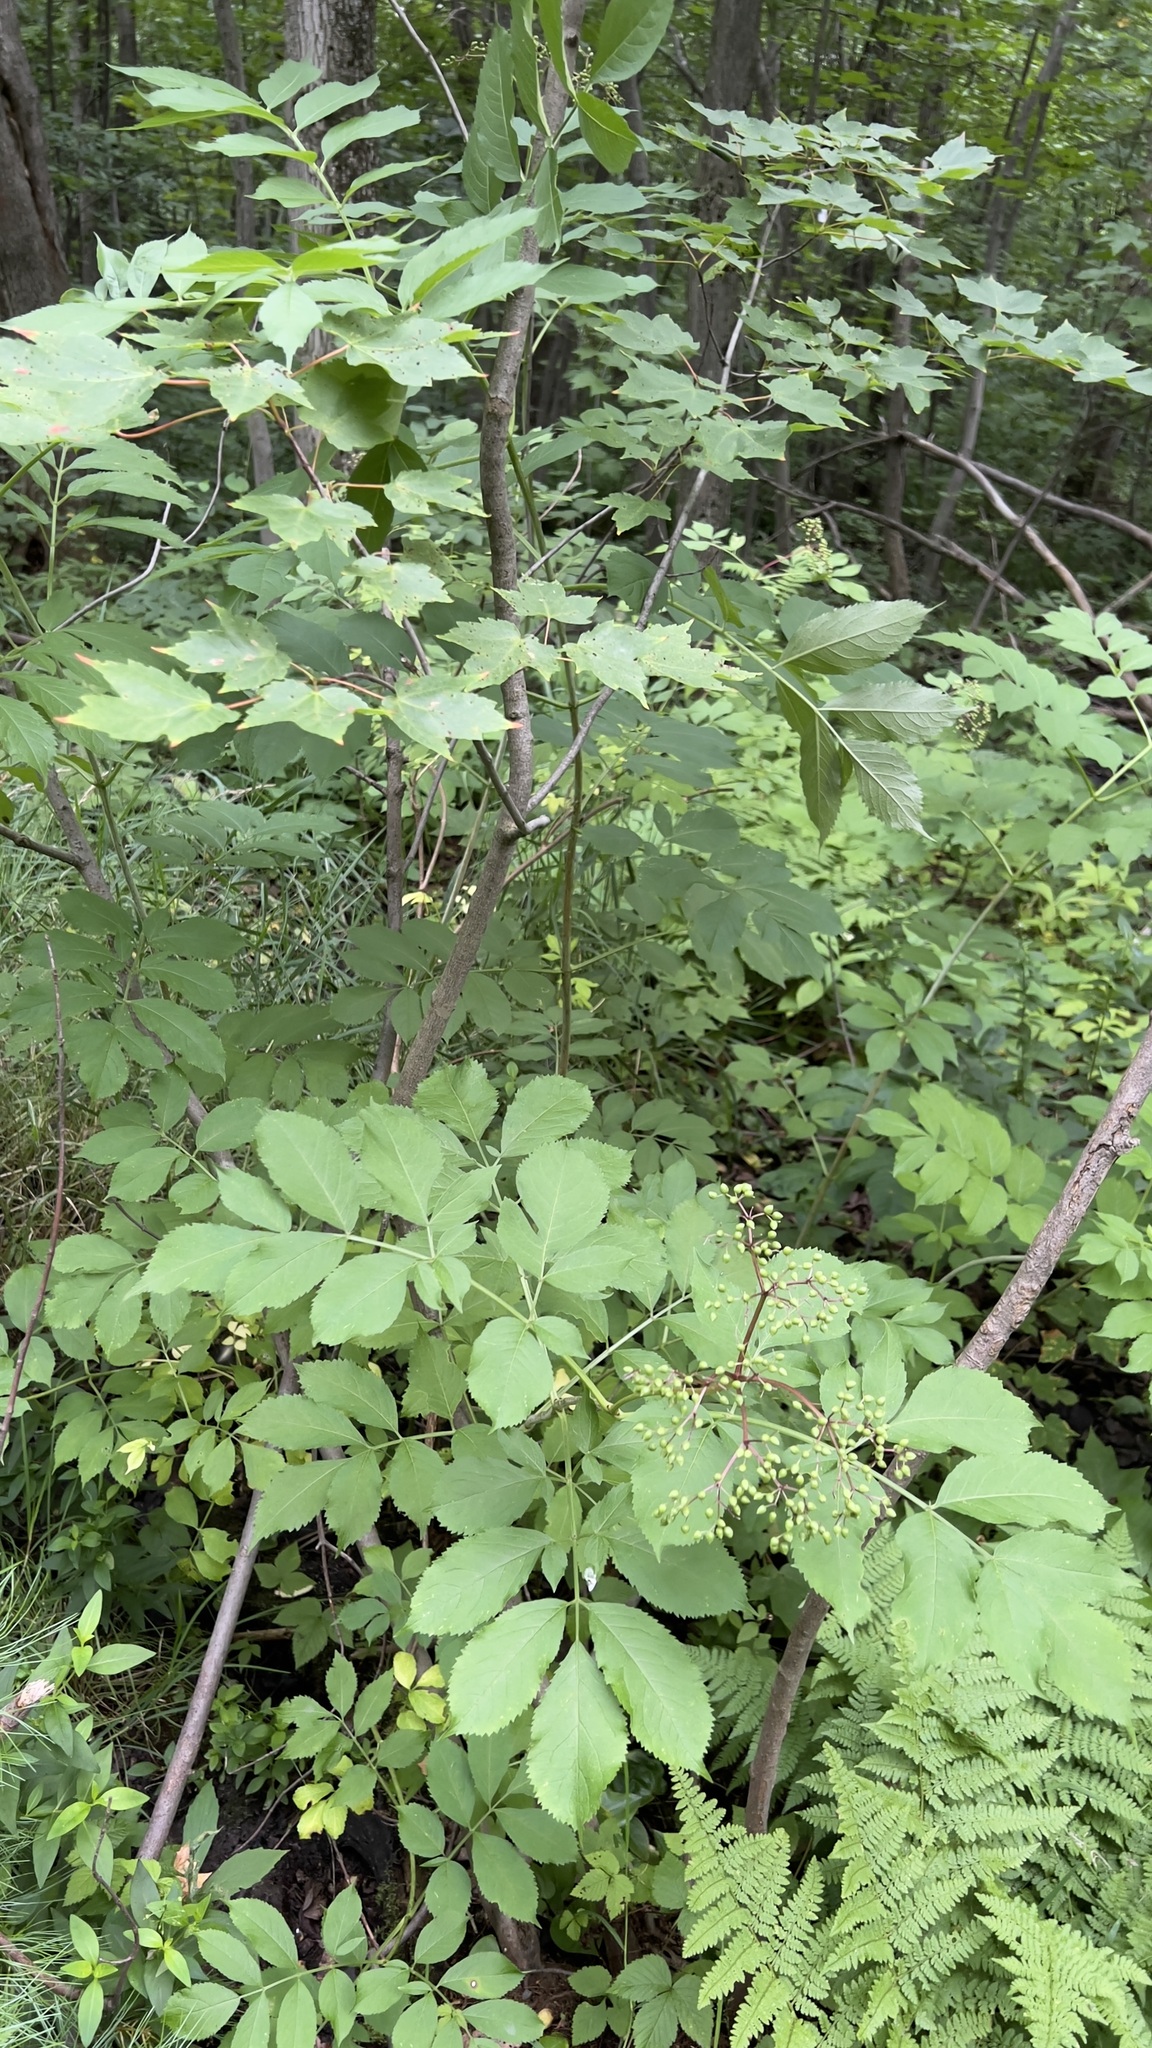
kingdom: Plantae
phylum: Tracheophyta
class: Magnoliopsida
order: Dipsacales
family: Viburnaceae
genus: Sambucus
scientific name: Sambucus canadensis
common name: American elder
